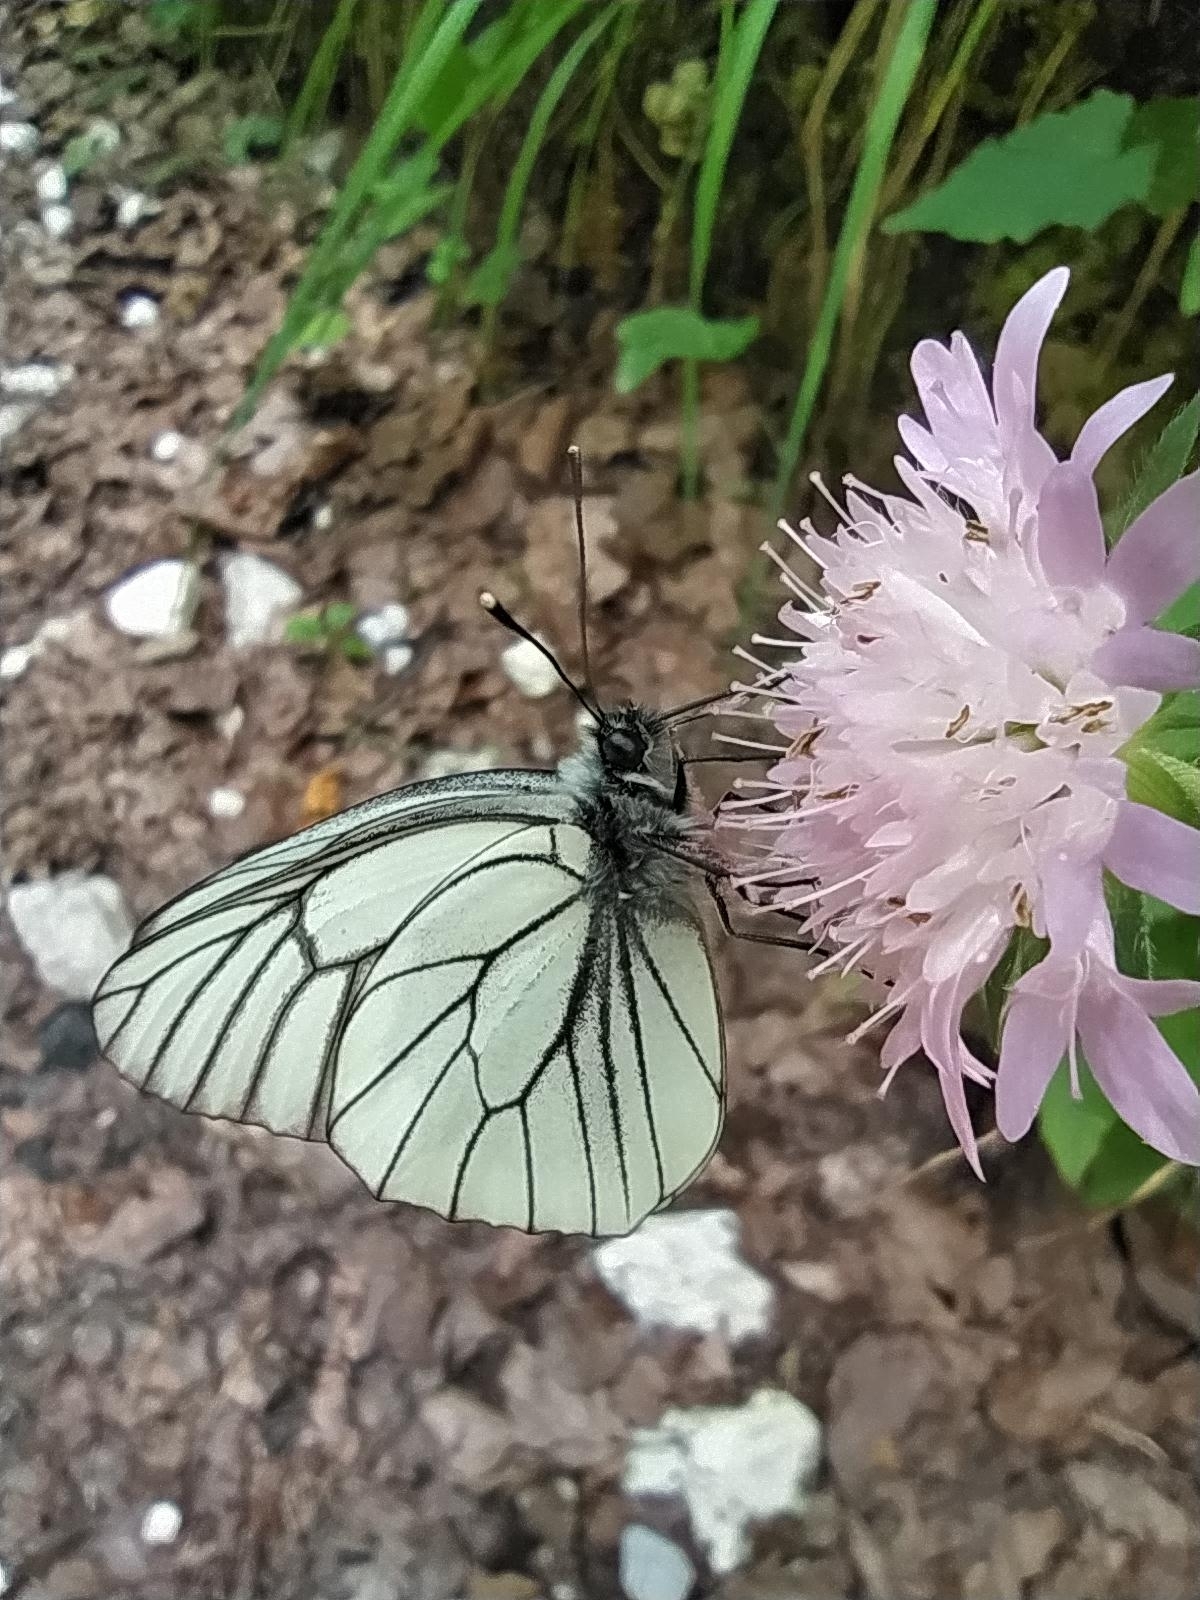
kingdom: Animalia
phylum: Arthropoda
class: Insecta
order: Lepidoptera
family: Pieridae
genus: Aporia
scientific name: Aporia crataegi
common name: Black-veined white
